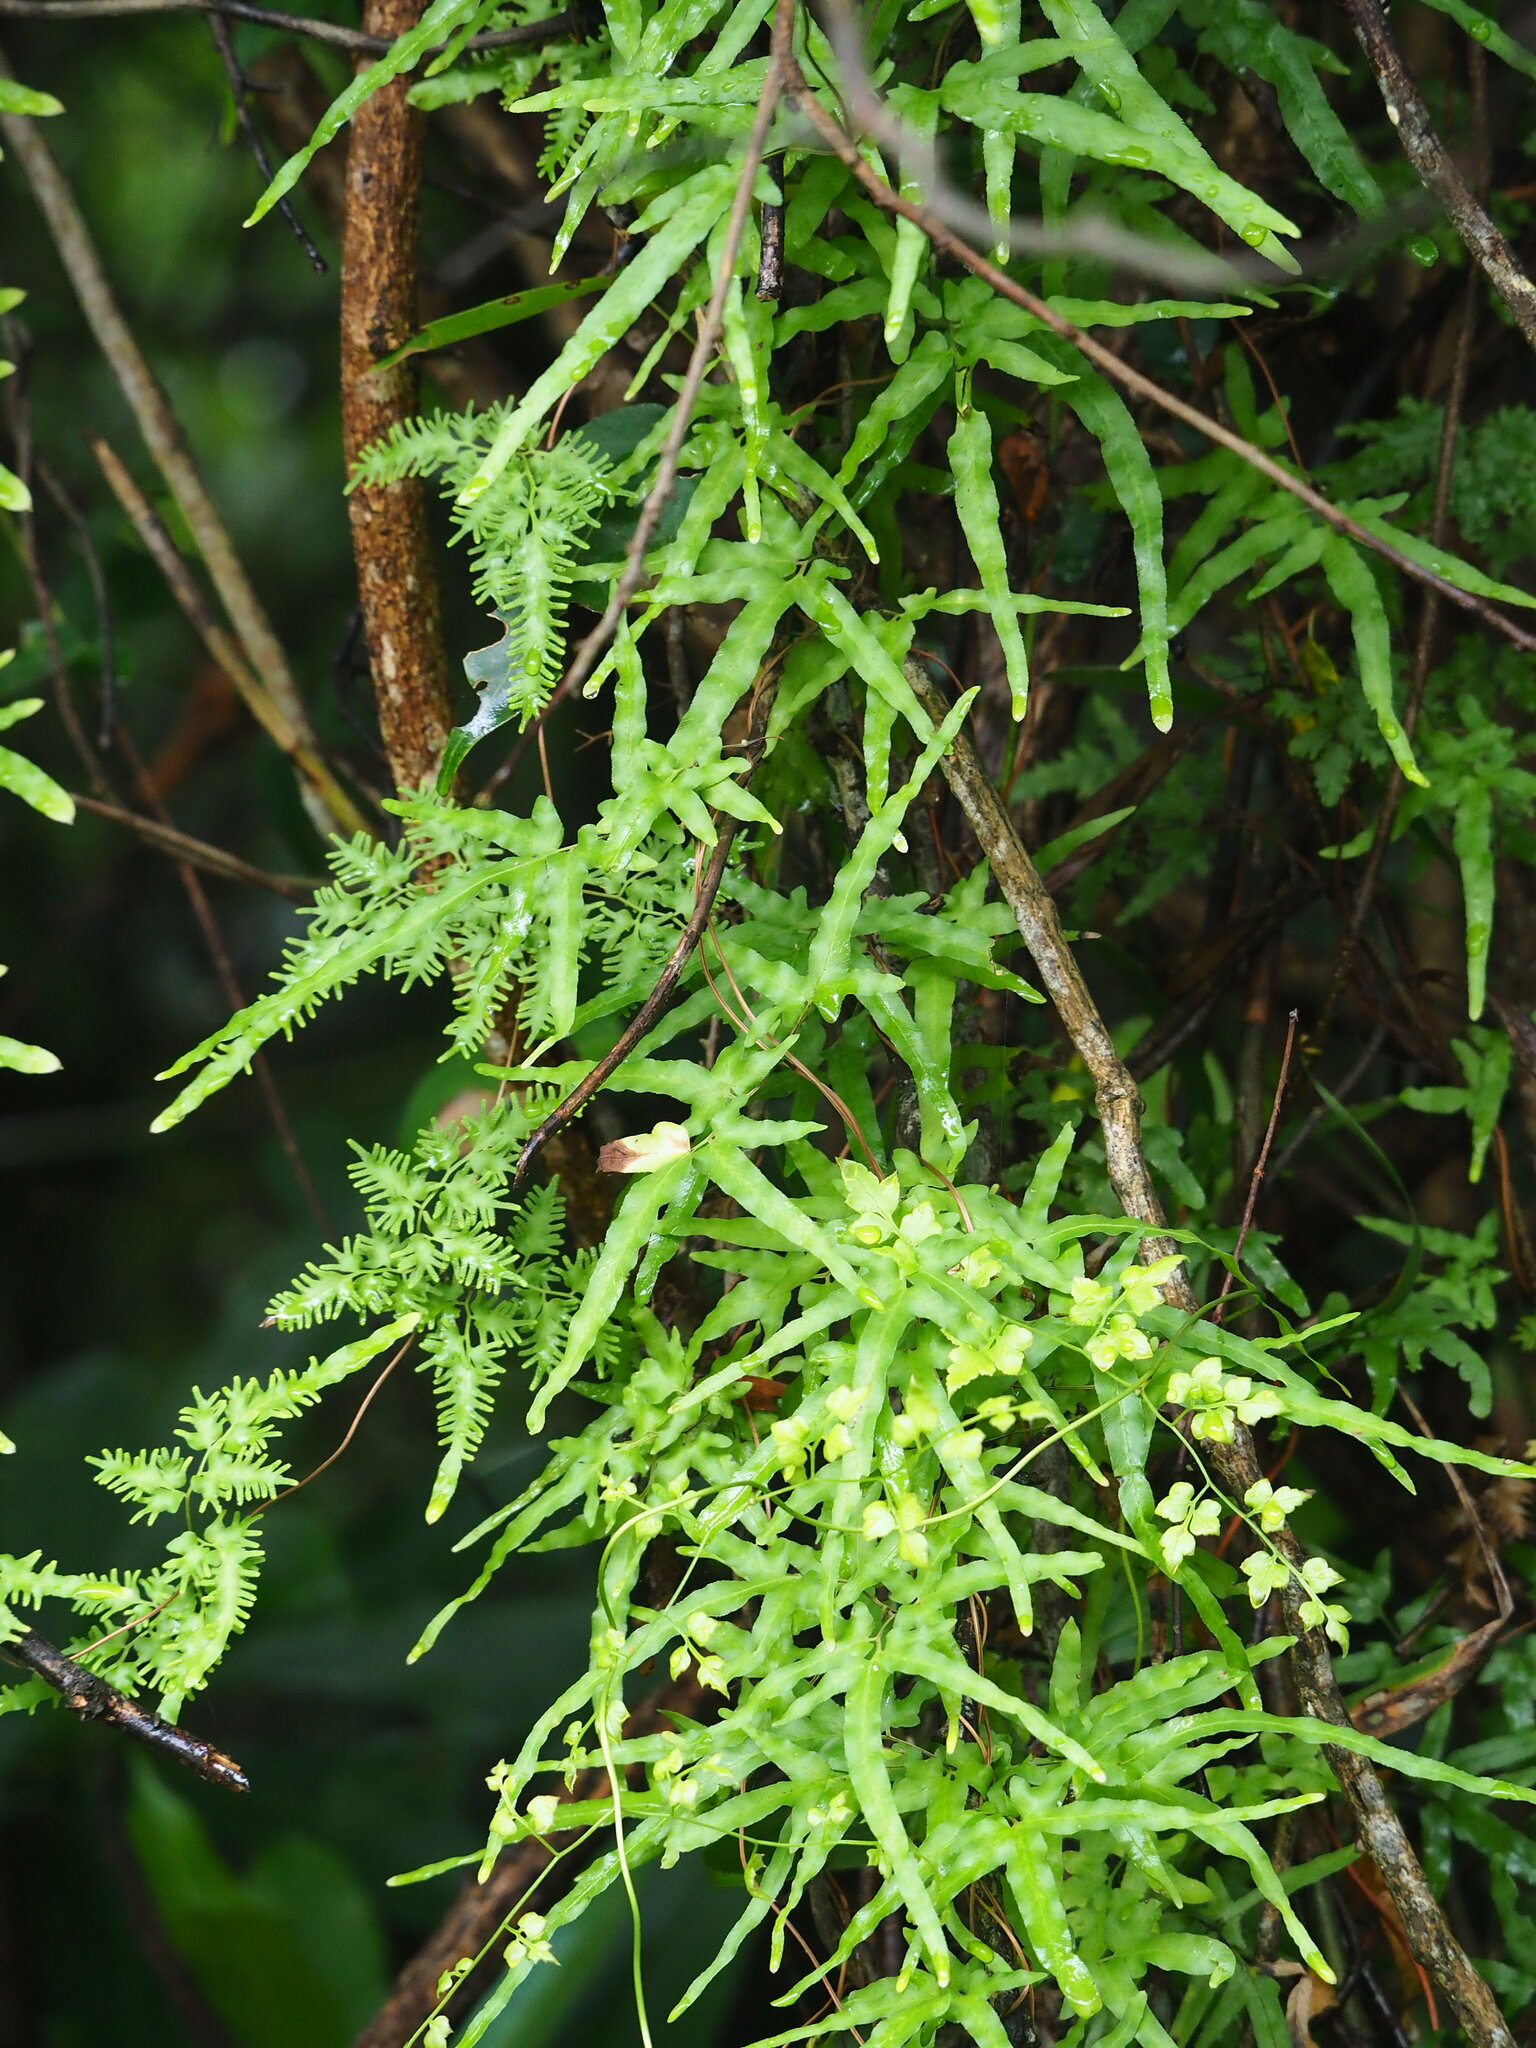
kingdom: Plantae
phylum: Tracheophyta
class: Polypodiopsida
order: Schizaeales
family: Lygodiaceae
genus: Lygodium
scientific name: Lygodium japonicum
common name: Japanese climbing fern
